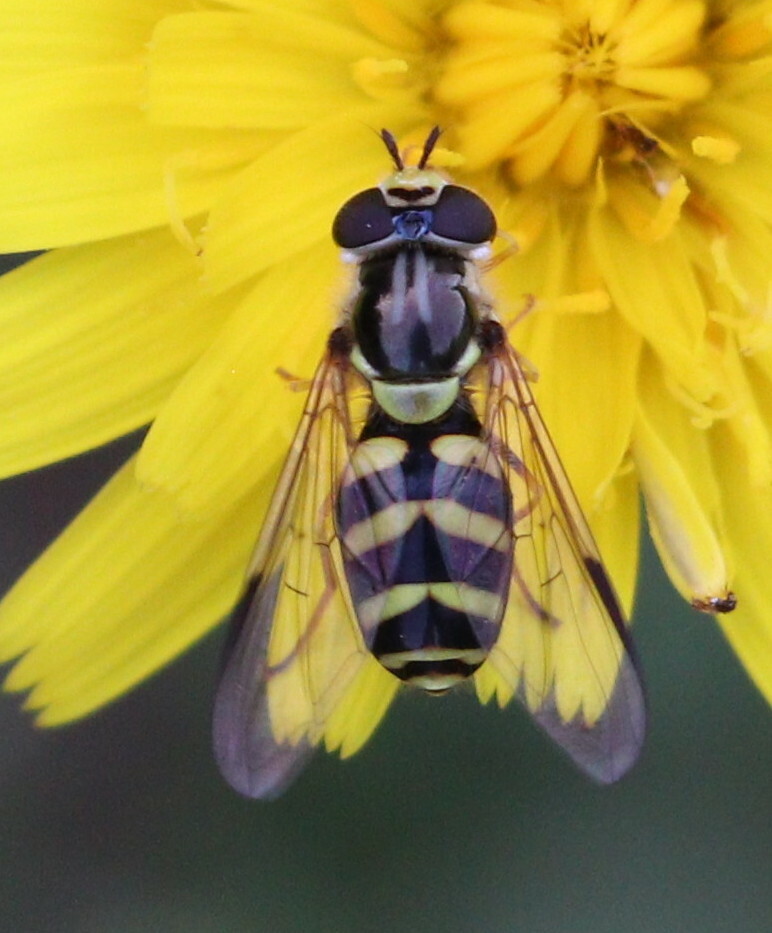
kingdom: Animalia
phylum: Arthropoda
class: Insecta
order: Diptera
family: Syrphidae
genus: Dasysyrphus
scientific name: Dasysyrphus albostriatus
